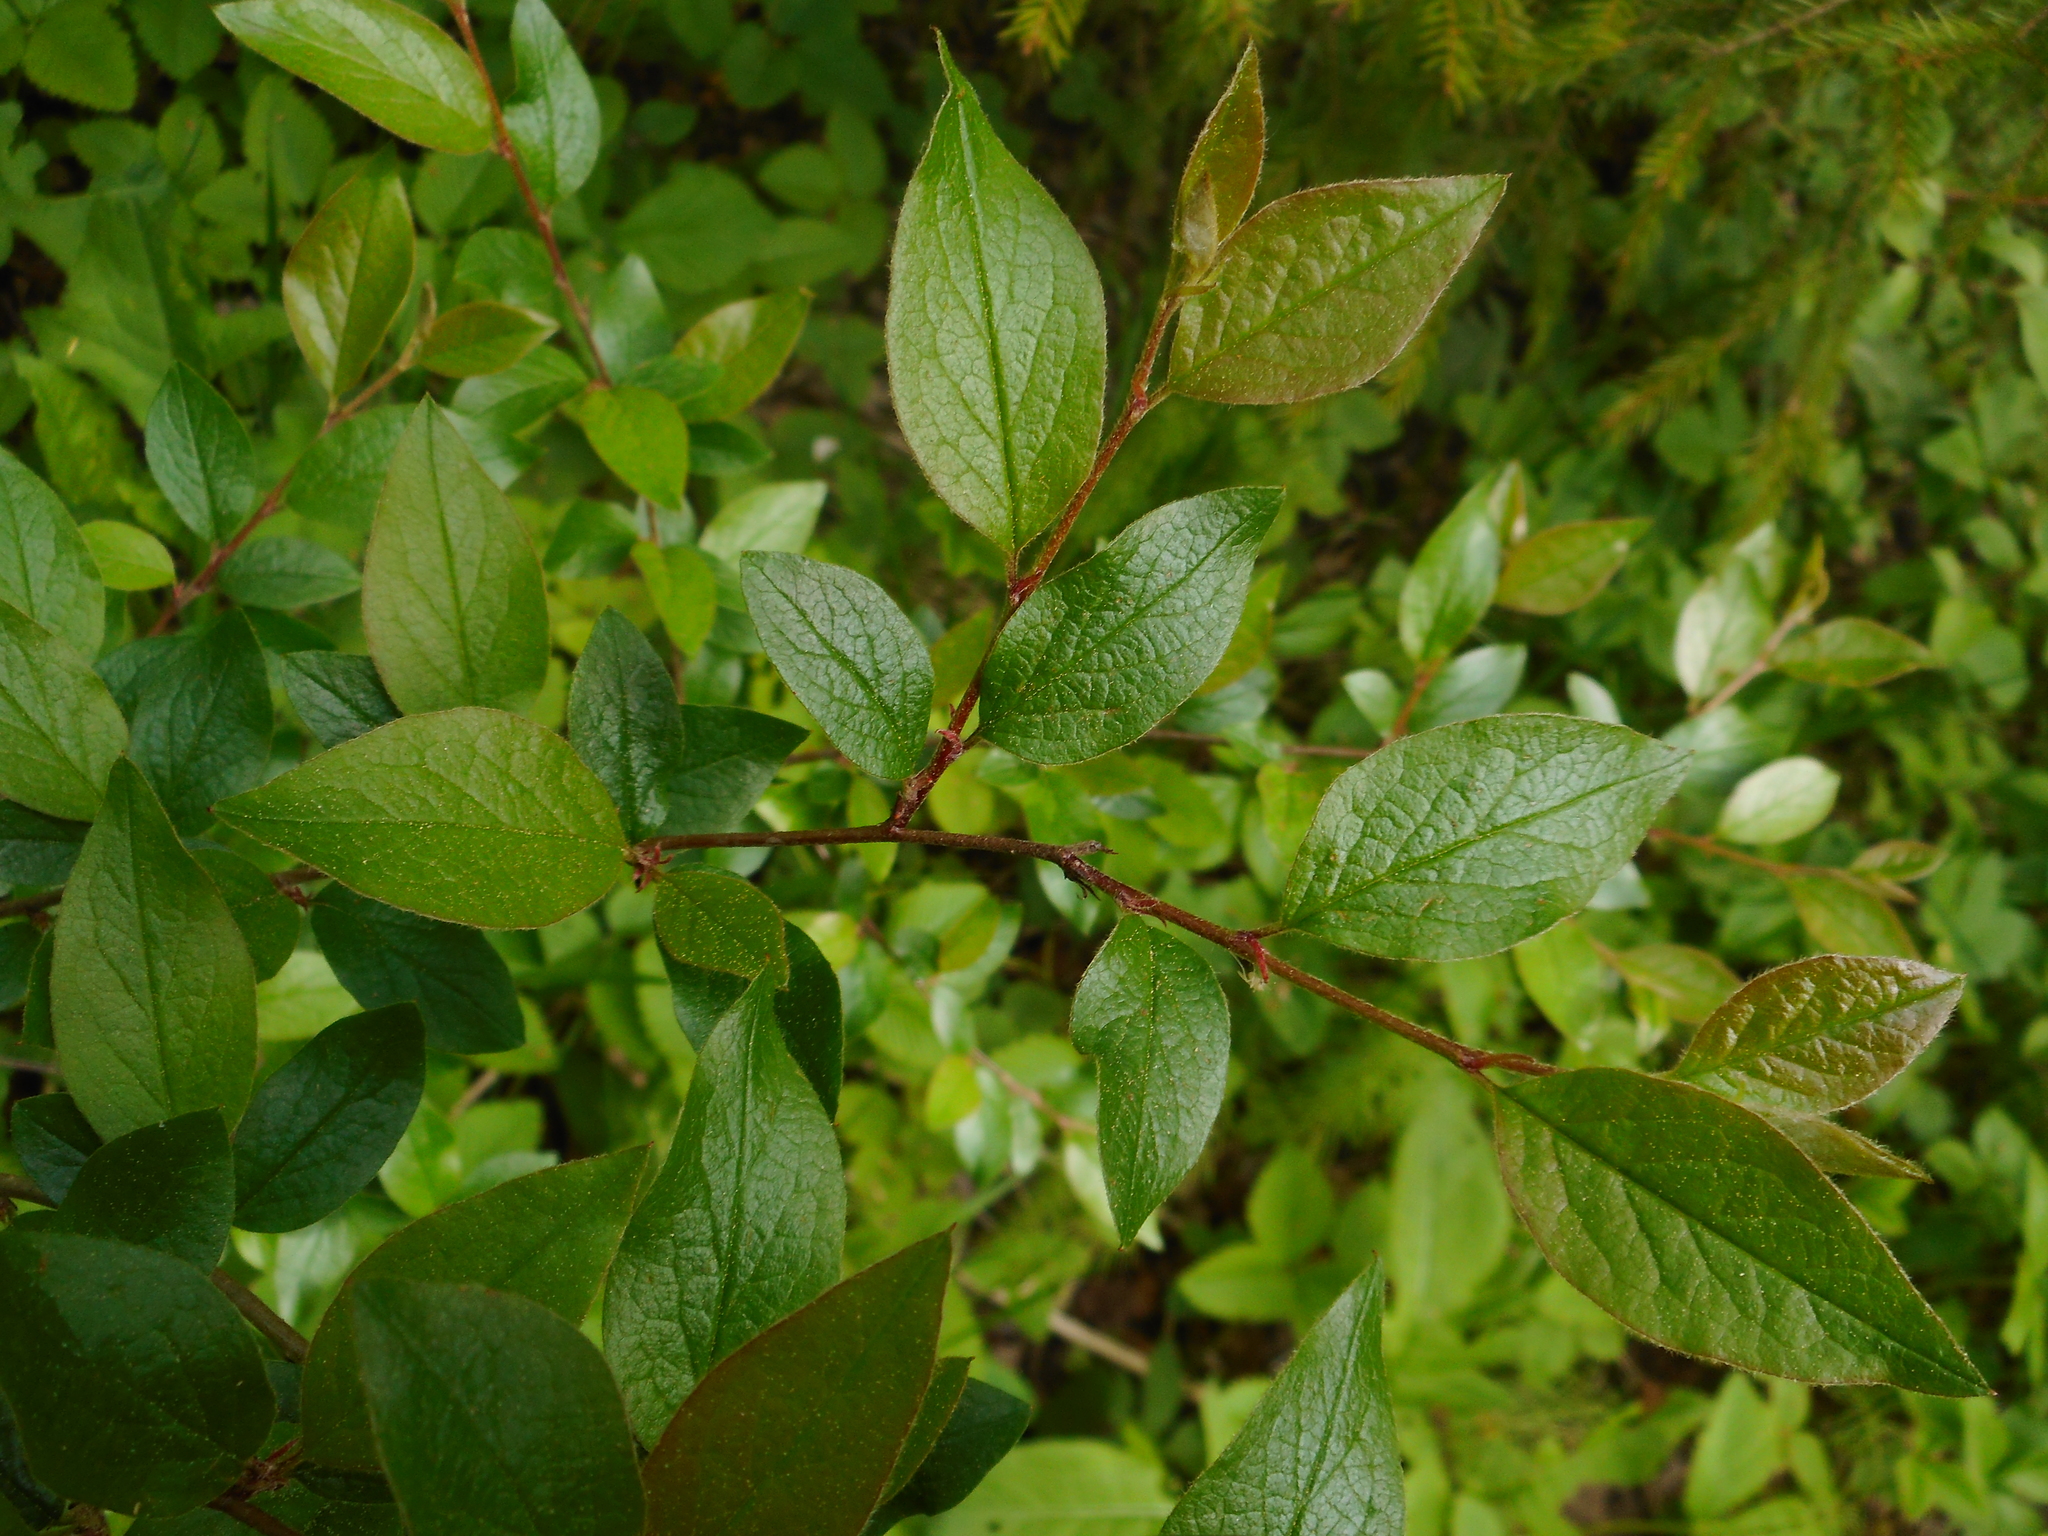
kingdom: Plantae
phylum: Tracheophyta
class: Magnoliopsida
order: Rosales
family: Rosaceae
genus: Cotoneaster
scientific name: Cotoneaster acutifolius
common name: Peking cotoneaster
